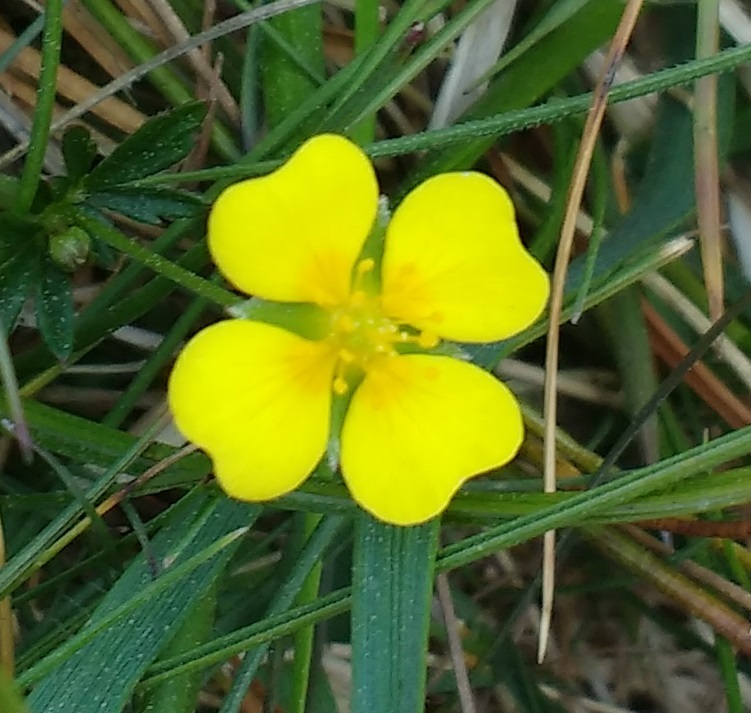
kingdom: Plantae
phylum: Tracheophyta
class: Magnoliopsida
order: Rosales
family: Rosaceae
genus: Potentilla
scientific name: Potentilla erecta
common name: Tormentil
